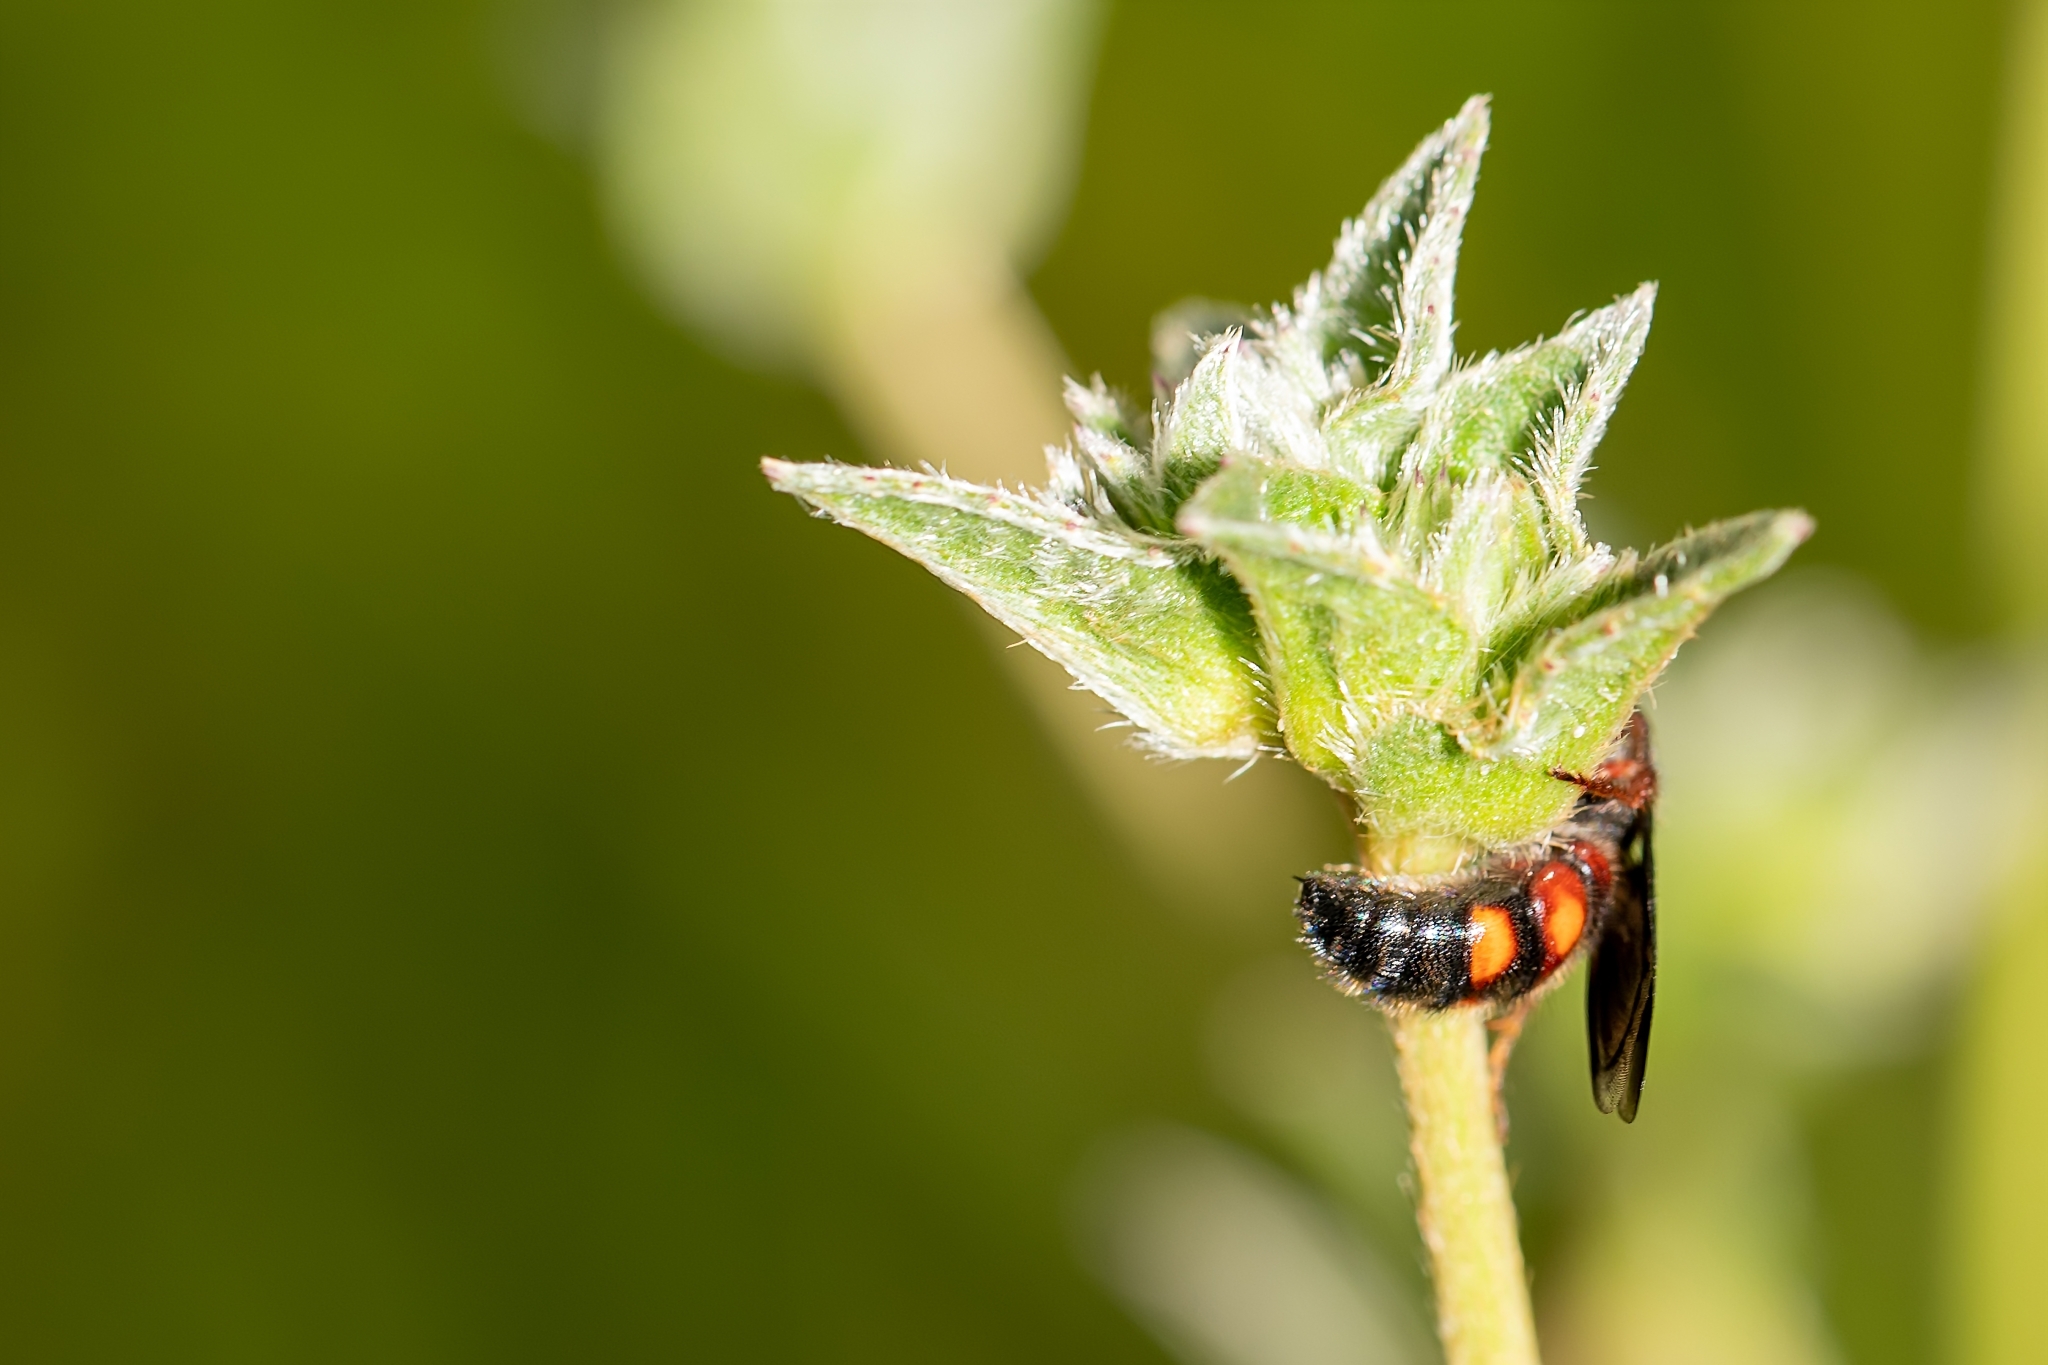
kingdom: Animalia
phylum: Arthropoda
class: Insecta
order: Hymenoptera
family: Scoliidae
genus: Scolia
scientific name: Scolia nobilitata
